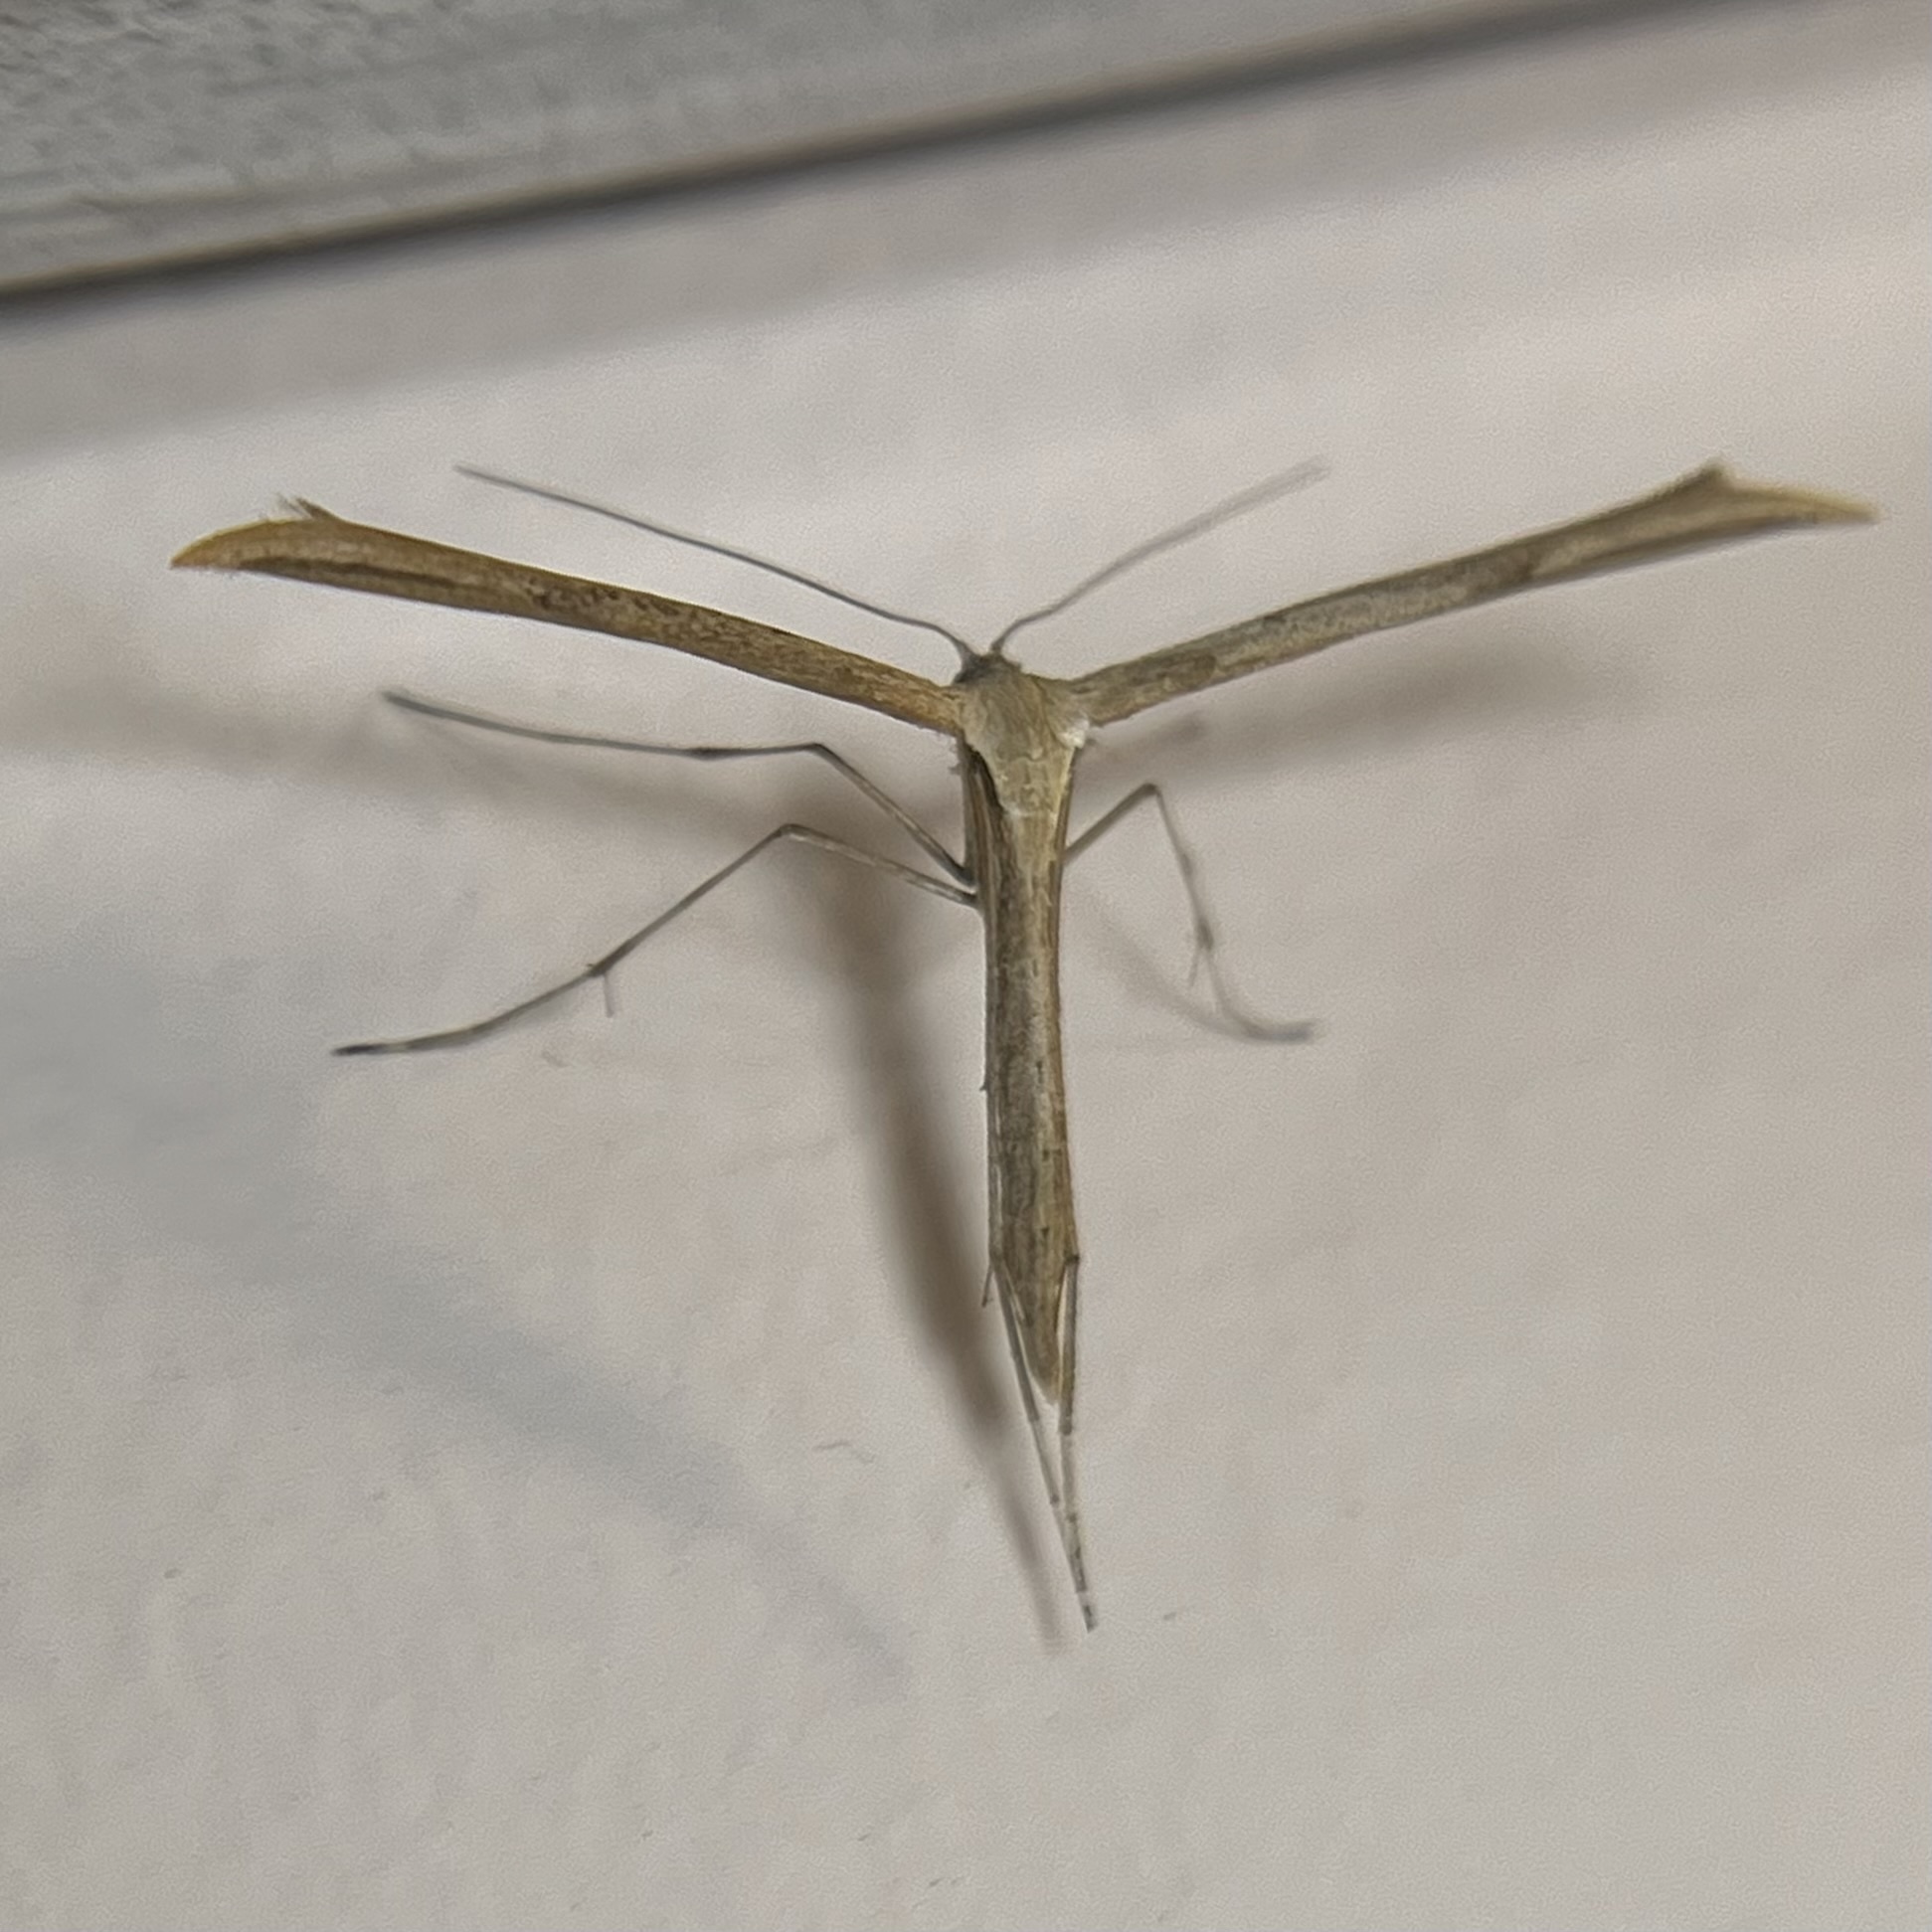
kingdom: Animalia
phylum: Arthropoda
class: Insecta
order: Lepidoptera
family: Pterophoridae
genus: Emmelina
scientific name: Emmelina monodactyla
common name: Common plume
